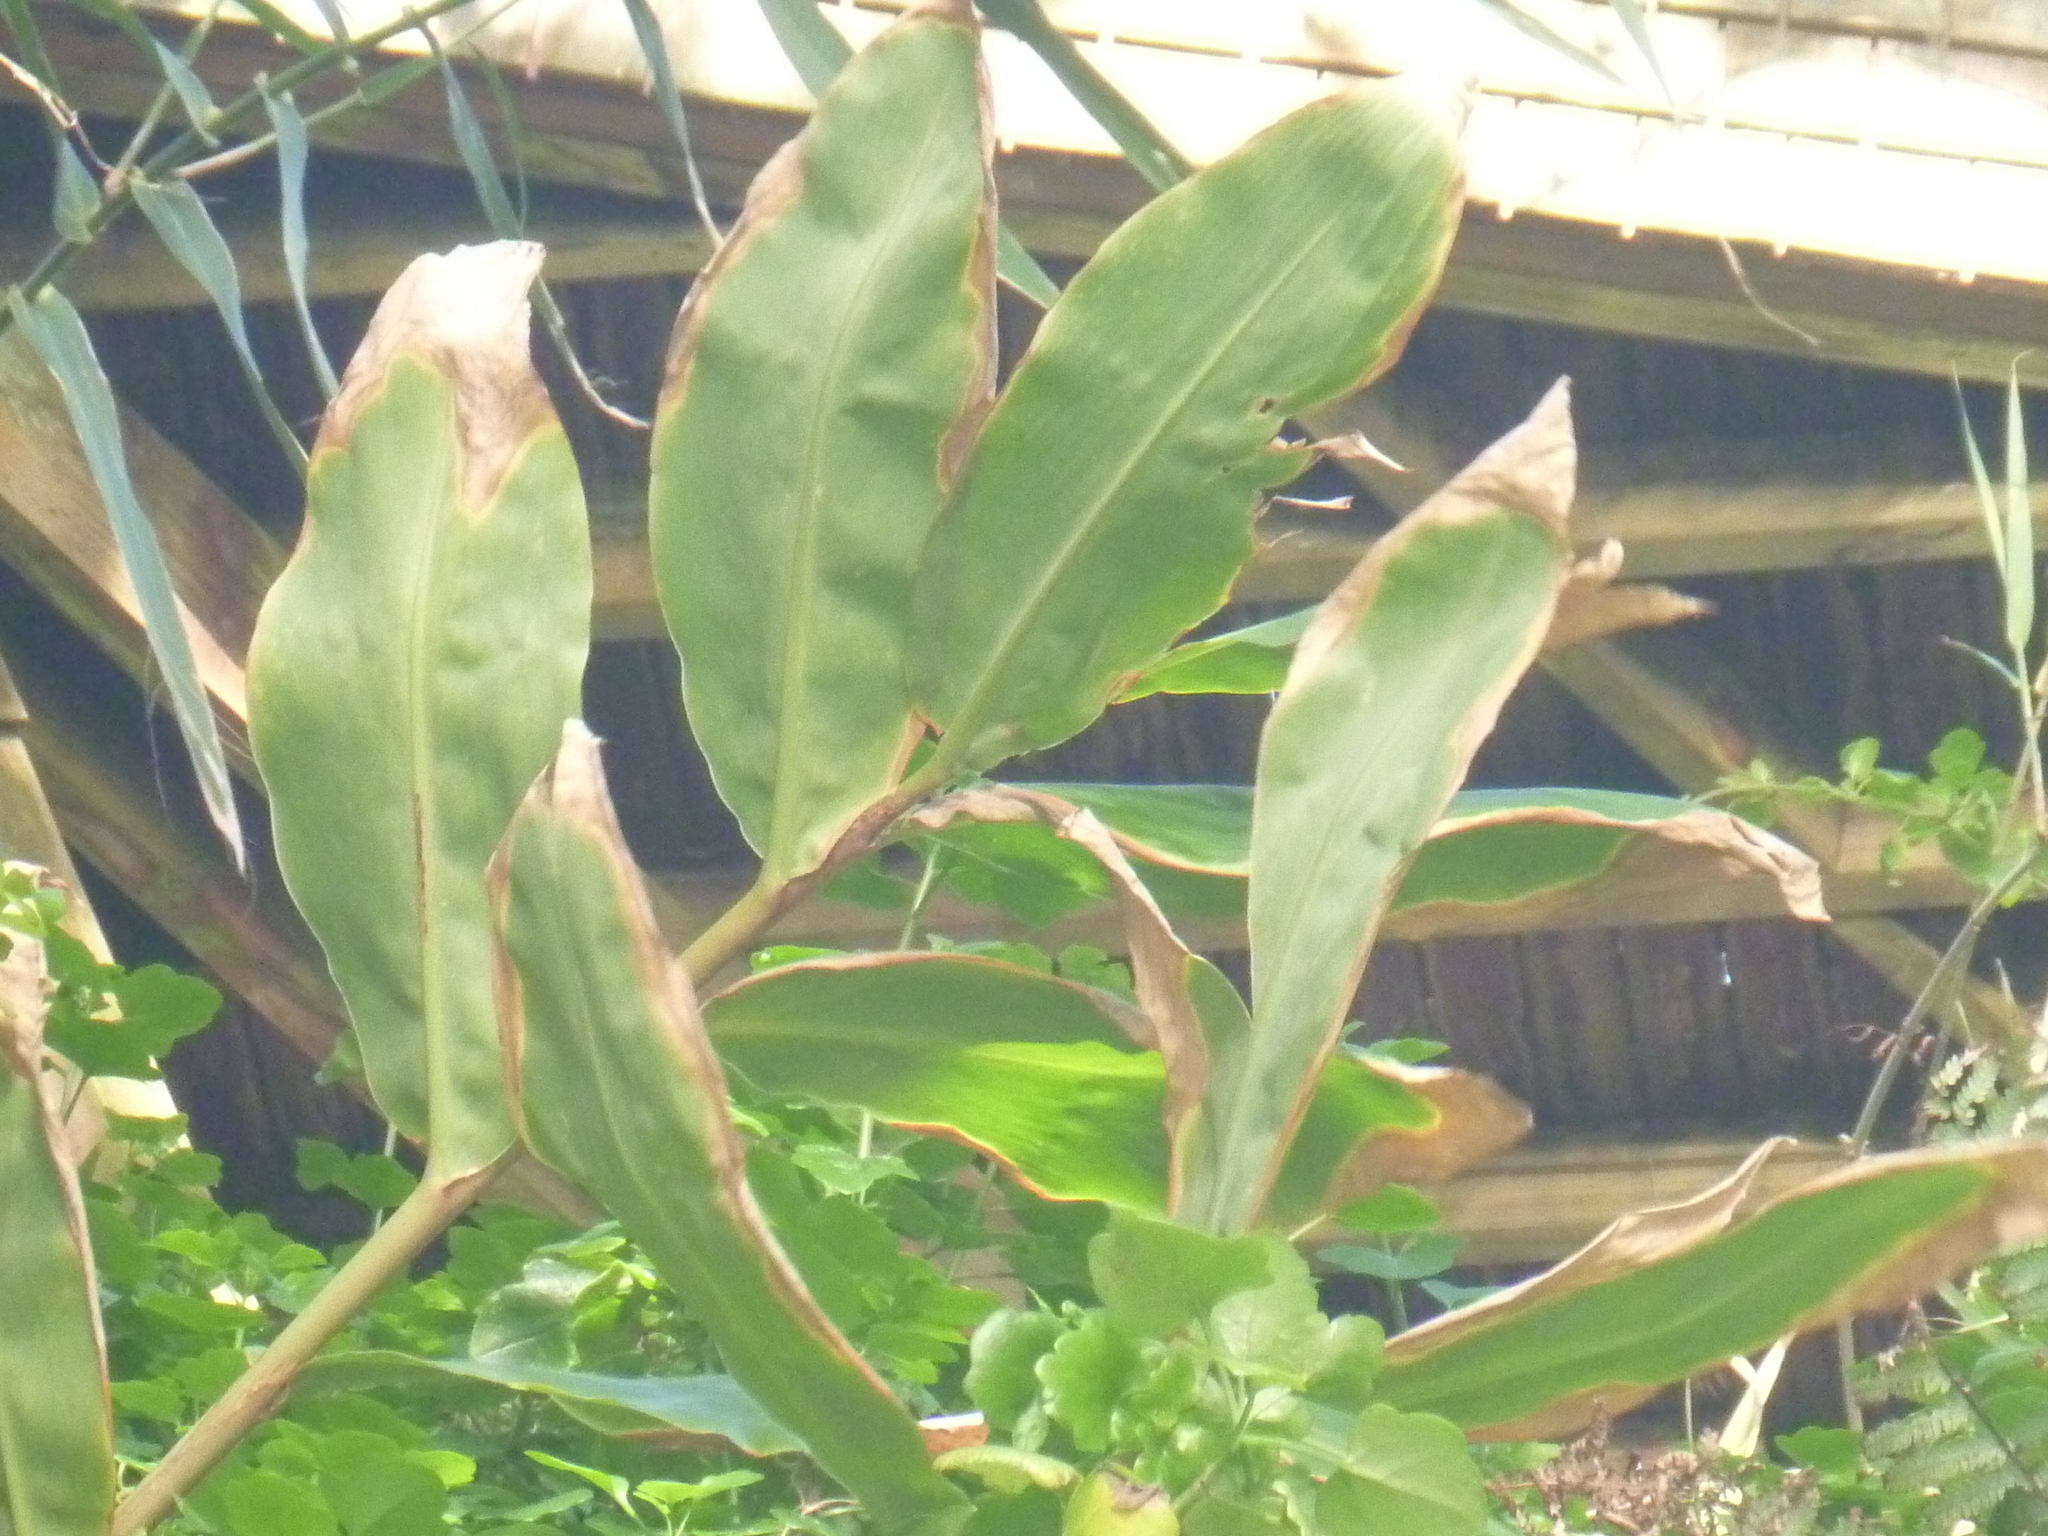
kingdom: Plantae
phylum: Tracheophyta
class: Liliopsida
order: Zingiberales
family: Zingiberaceae
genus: Hedychium
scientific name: Hedychium gardnerianum
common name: Himalayan ginger
